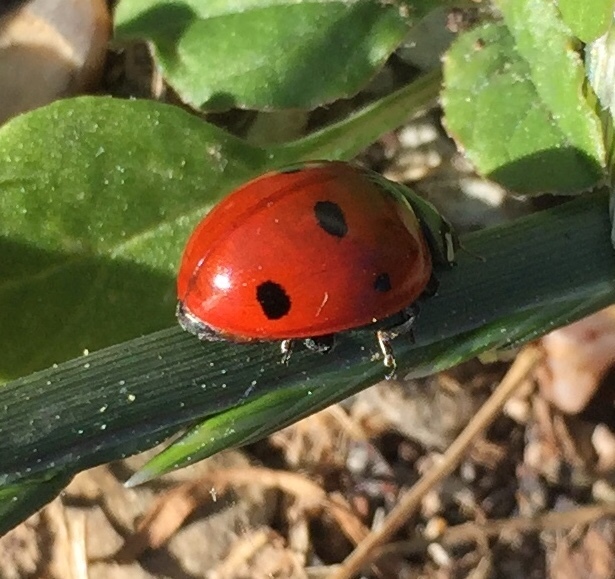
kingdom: Animalia
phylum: Arthropoda
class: Insecta
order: Coleoptera
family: Coccinellidae
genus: Coccinella
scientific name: Coccinella septempunctata
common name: Sevenspotted lady beetle
